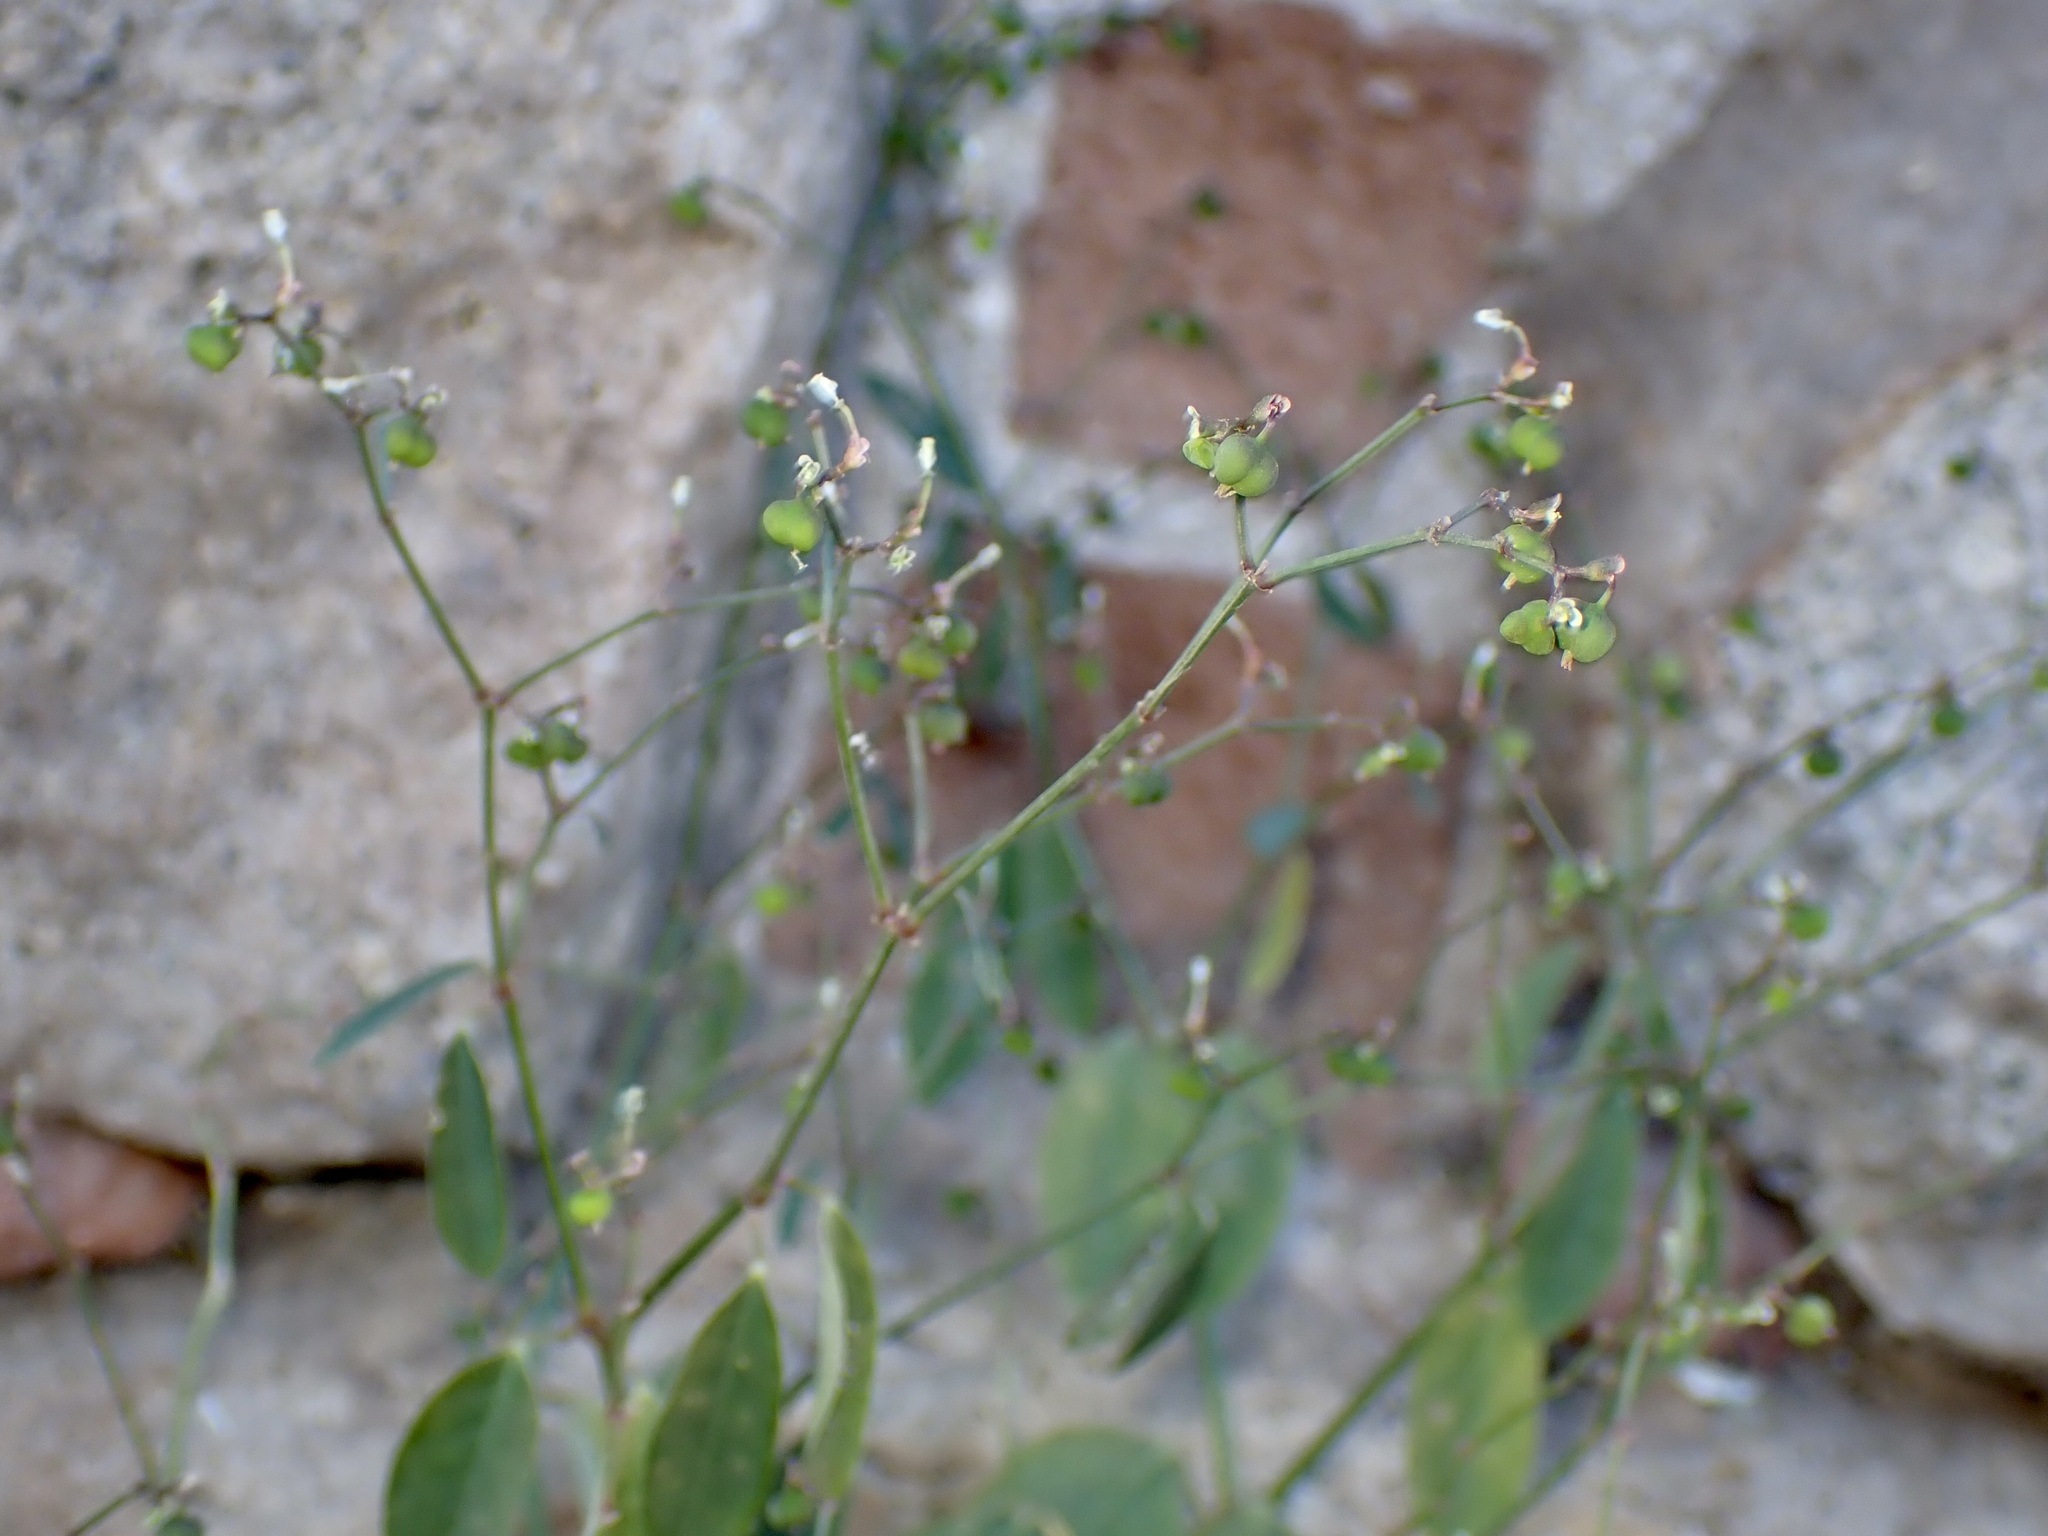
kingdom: Plantae
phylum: Tracheophyta
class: Magnoliopsida
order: Malpighiales
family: Euphorbiaceae
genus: Euphorbia
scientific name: Euphorbia graminea
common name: Grassleaf spurge
